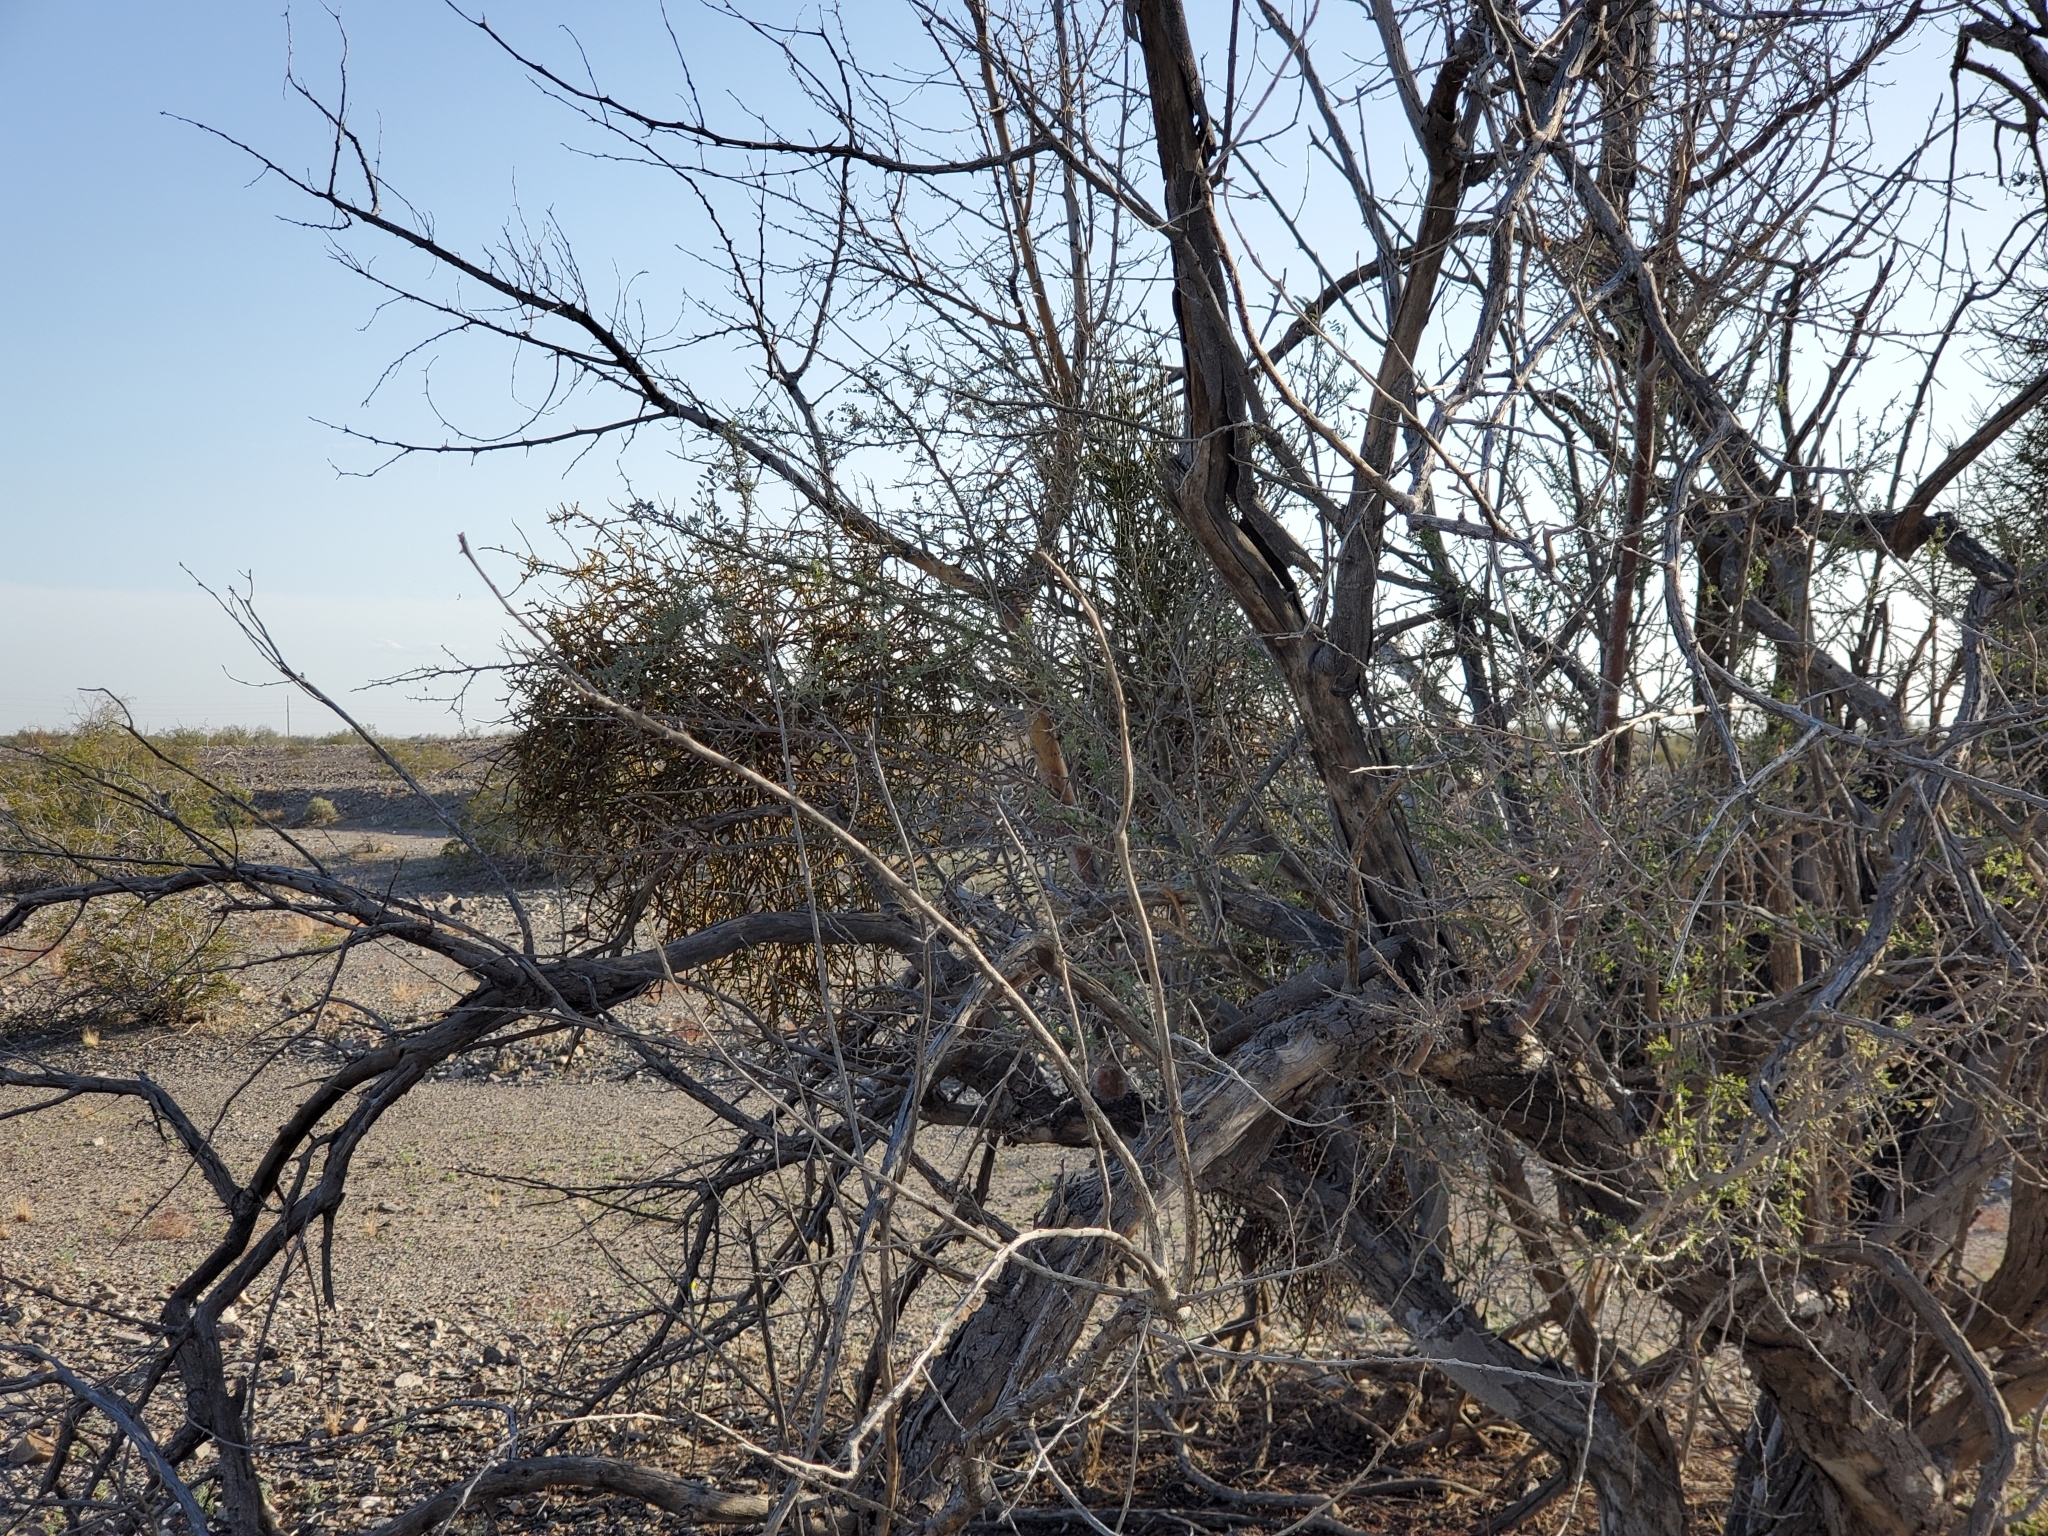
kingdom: Plantae
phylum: Tracheophyta
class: Magnoliopsida
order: Fabales
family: Fabaceae
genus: Senegalia
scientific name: Senegalia greggii
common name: Texas-mimosa
